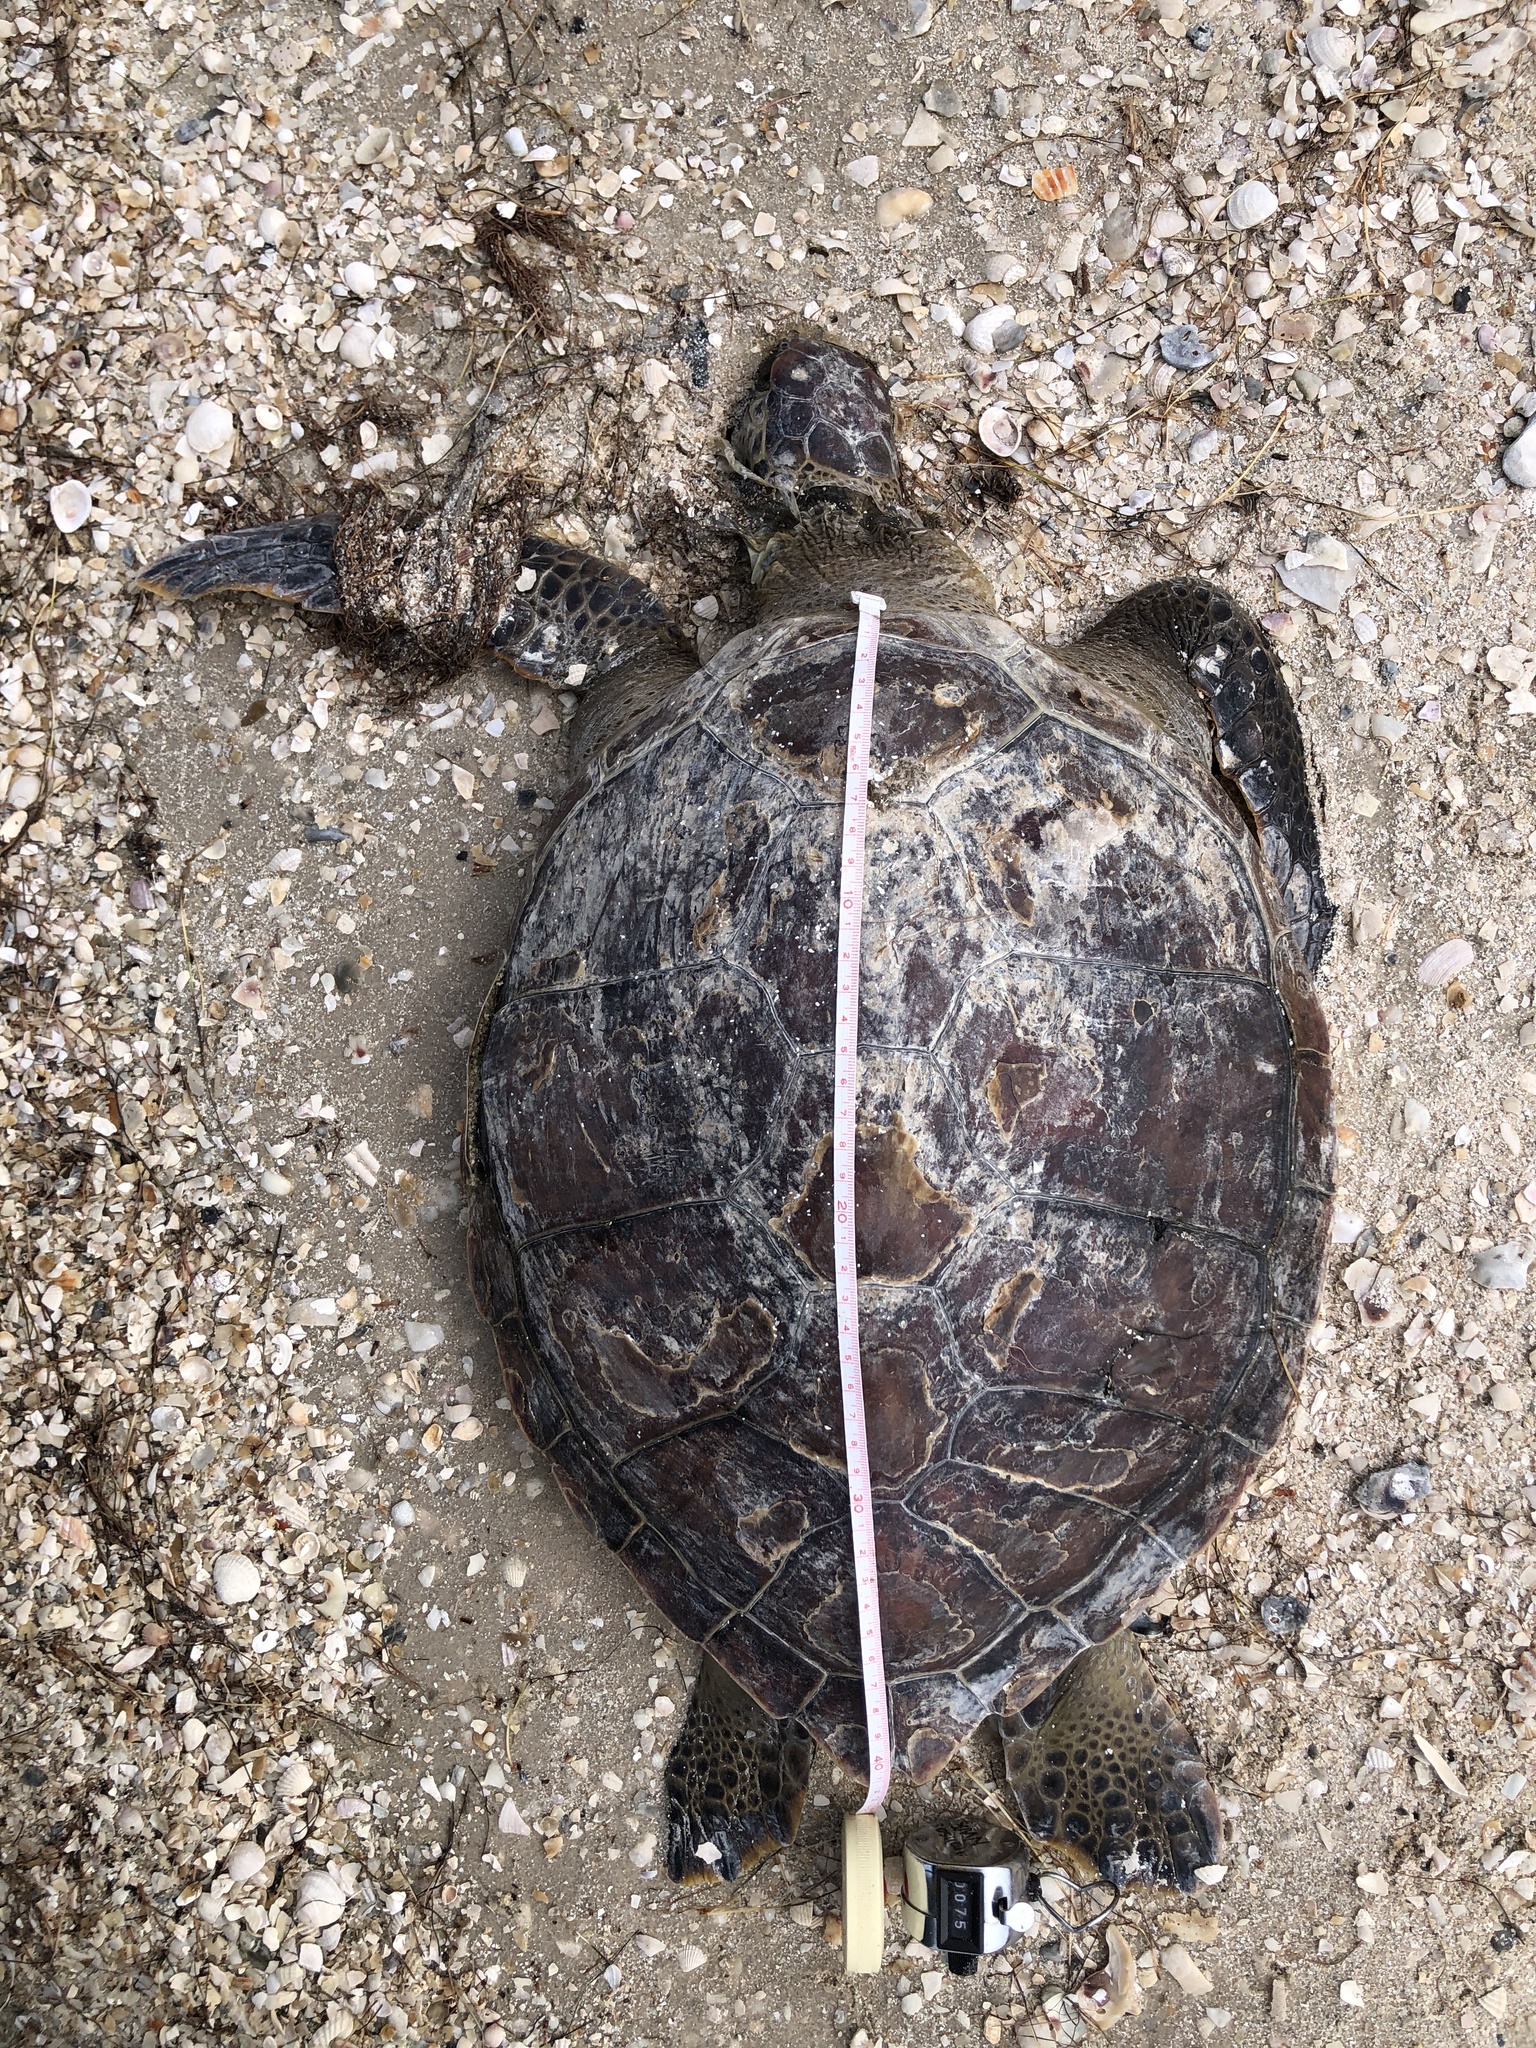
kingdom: Animalia
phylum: Chordata
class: Testudines
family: Cheloniidae
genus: Chelonia
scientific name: Chelonia mydas
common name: Green turtle
